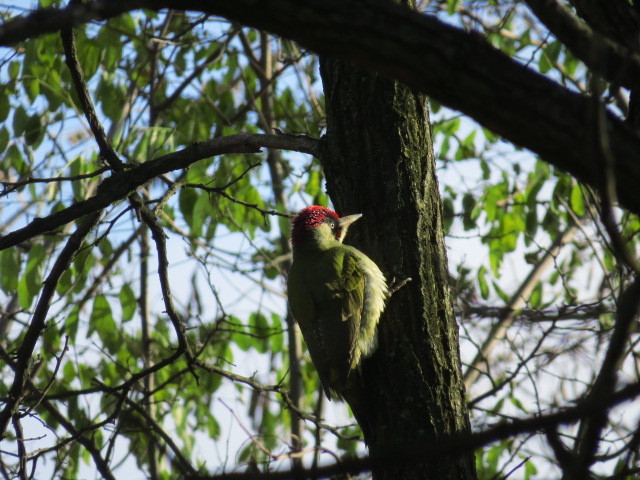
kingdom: Animalia
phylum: Chordata
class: Aves
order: Piciformes
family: Picidae
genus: Picus
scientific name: Picus viridis
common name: European green woodpecker
